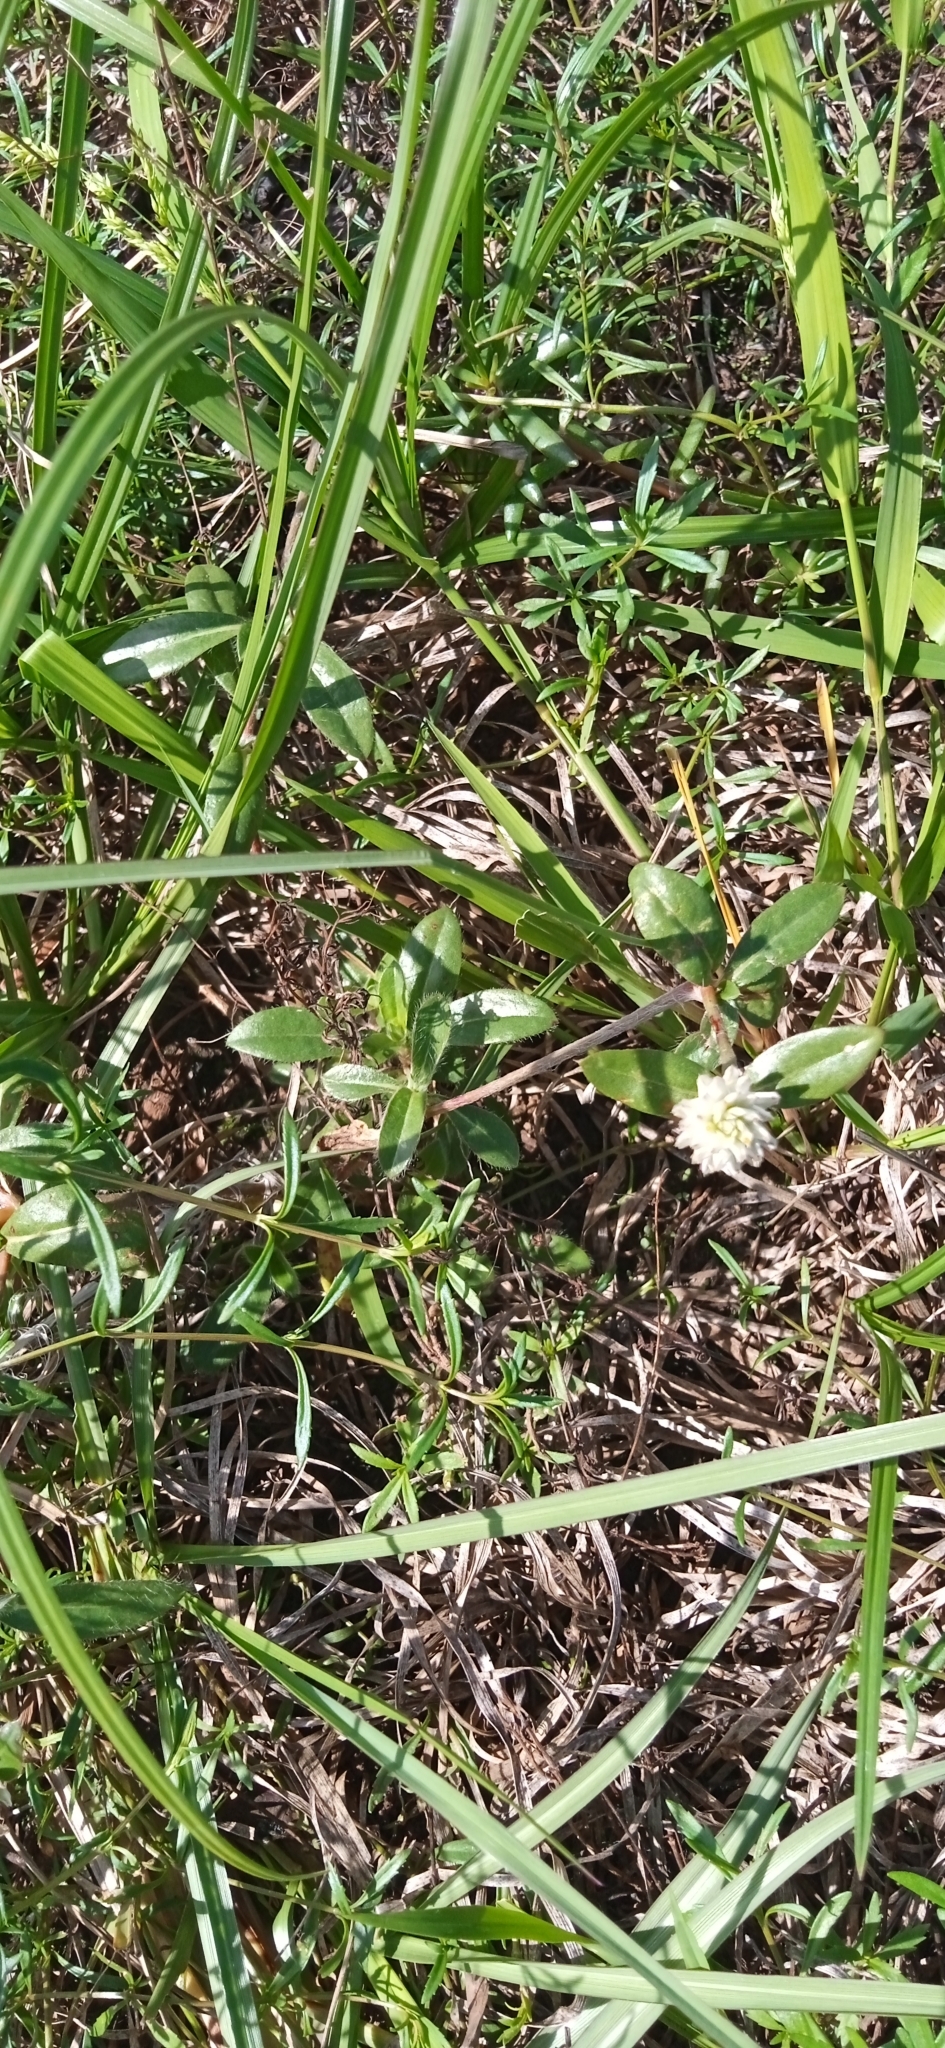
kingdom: Plantae
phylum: Tracheophyta
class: Magnoliopsida
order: Caryophyllales
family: Amaranthaceae
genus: Gomphrena
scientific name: Gomphrena celosioides
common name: Gomphrena-weed
